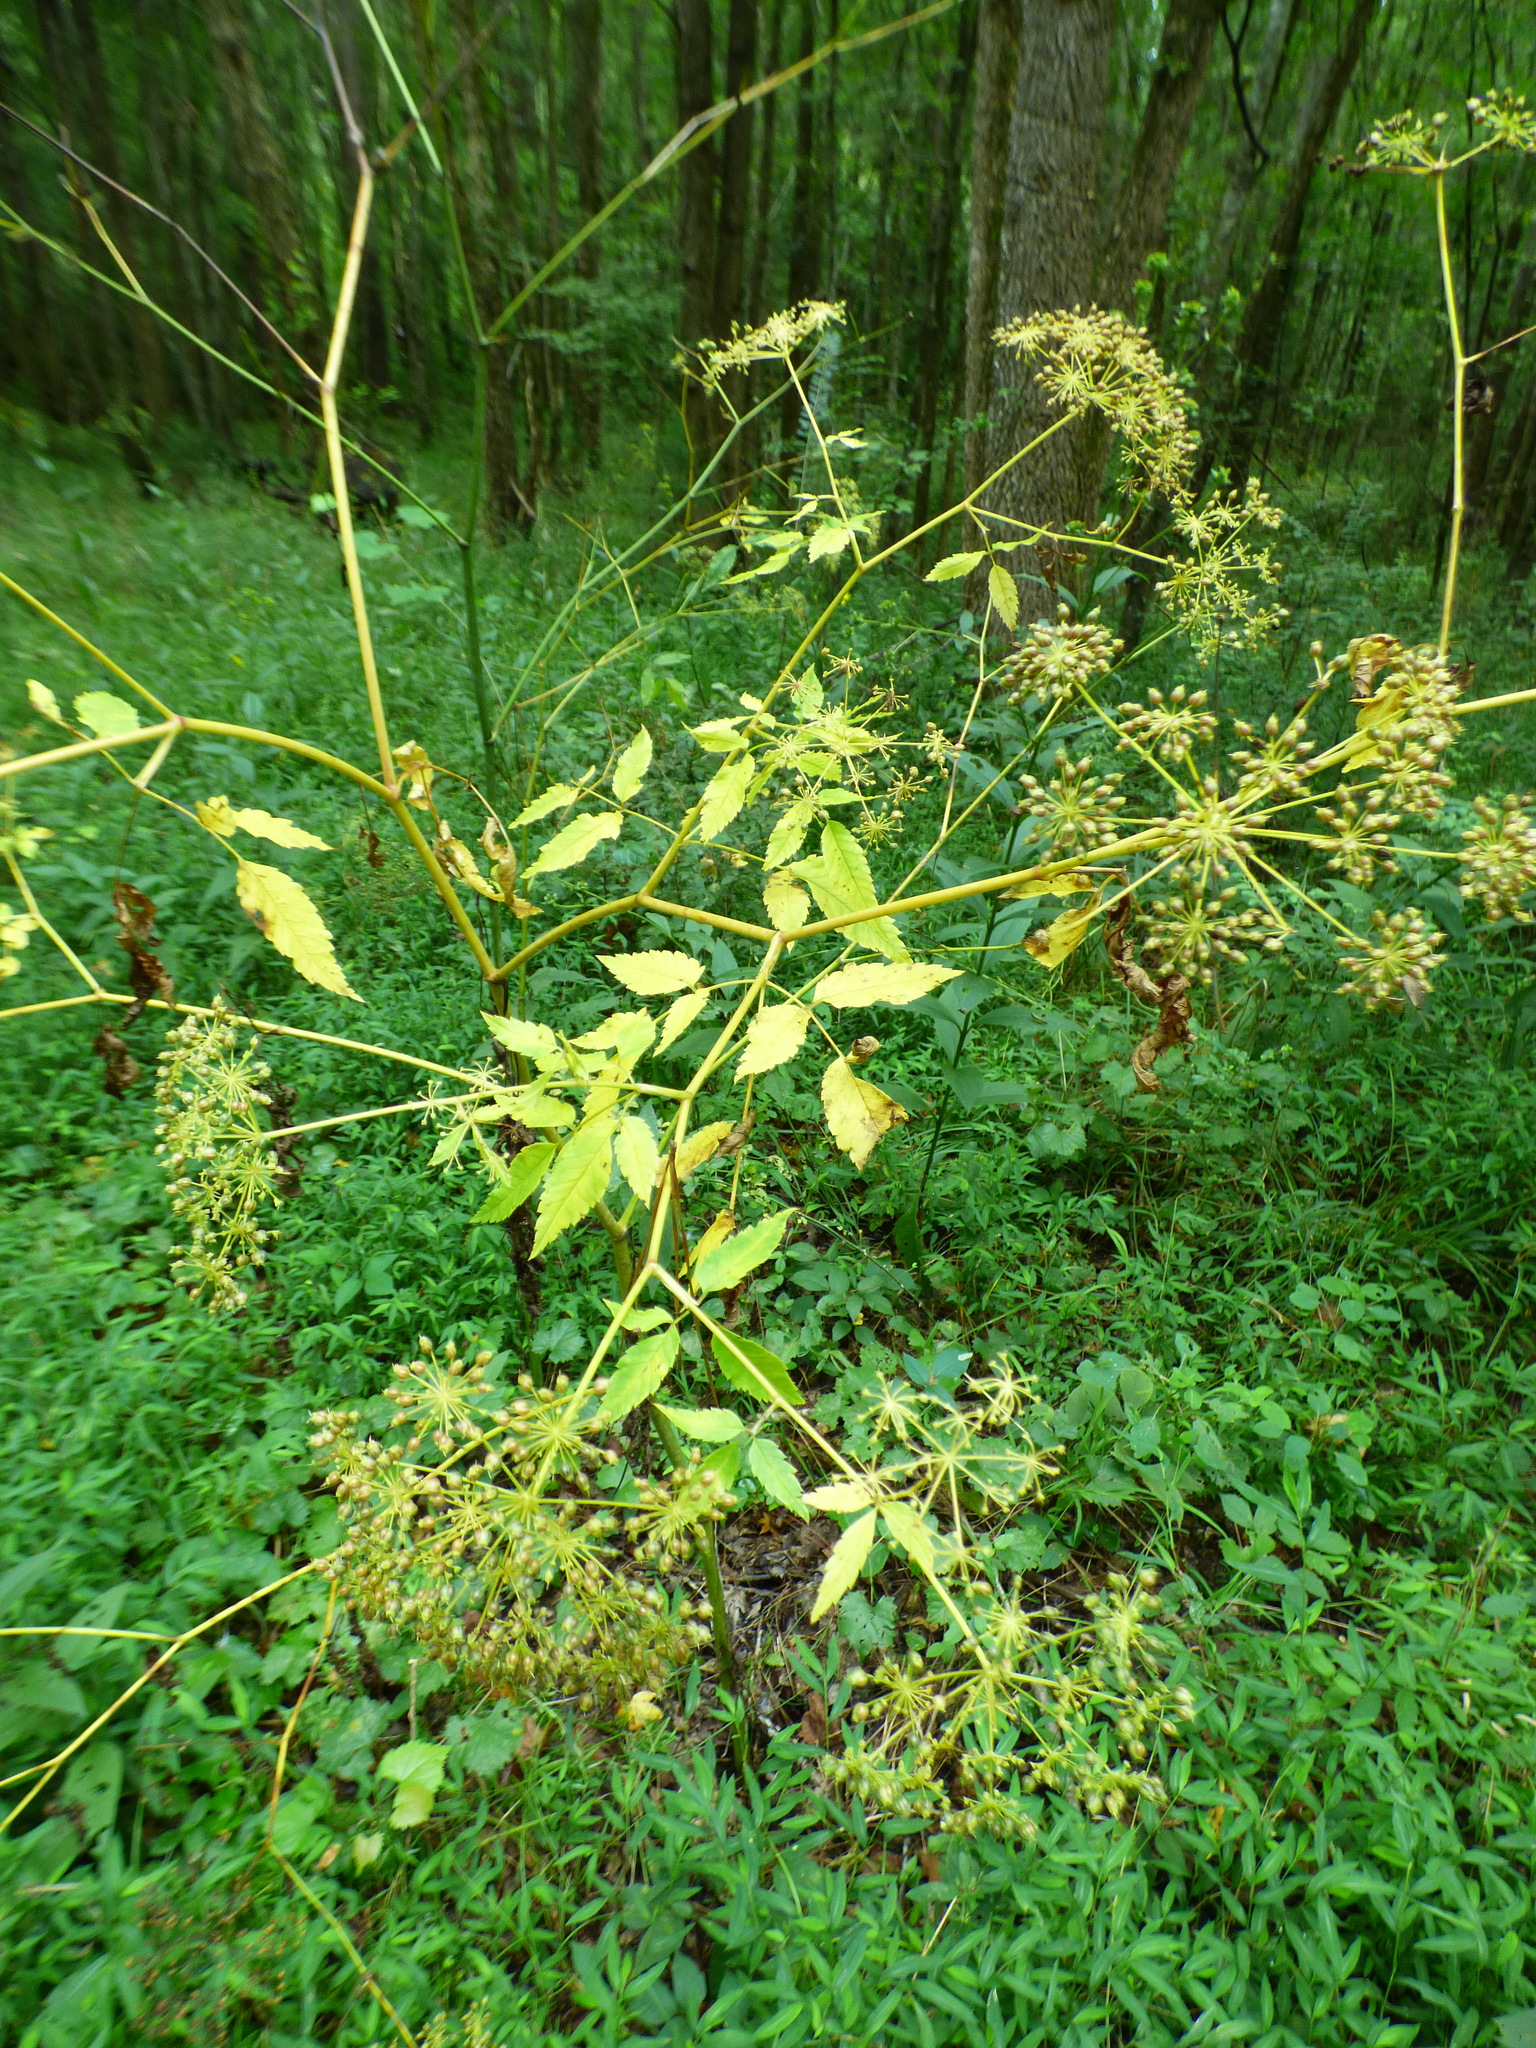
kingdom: Plantae
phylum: Tracheophyta
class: Magnoliopsida
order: Apiales
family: Apiaceae
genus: Cicuta
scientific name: Cicuta maculata
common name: Spotted cowbane
